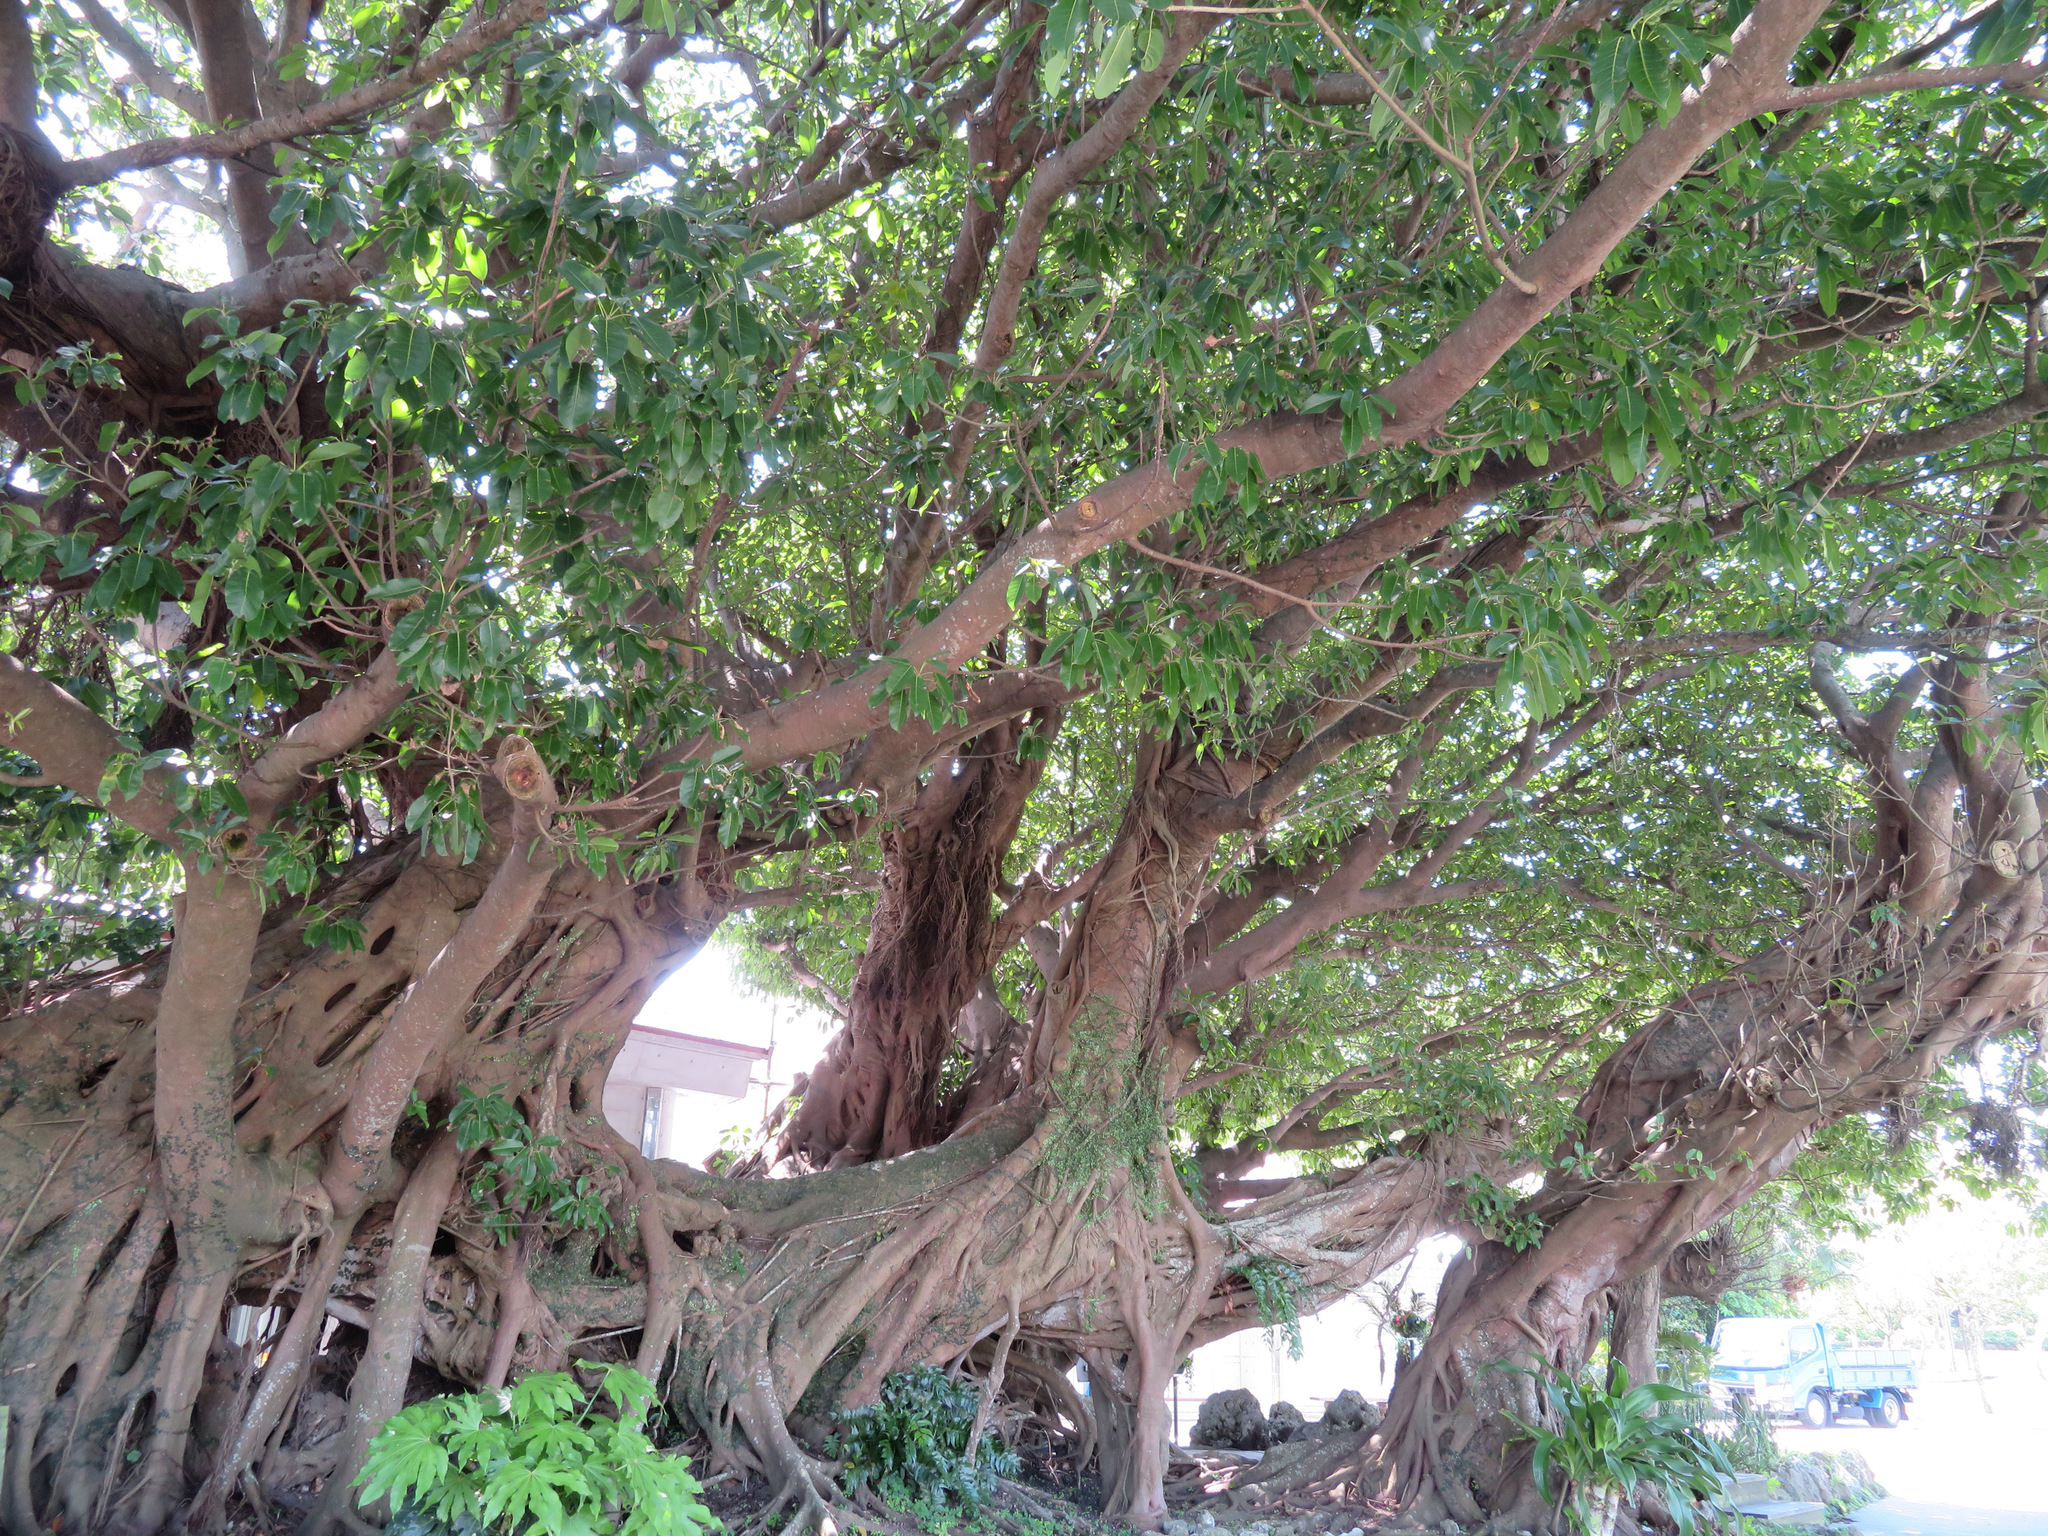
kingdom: Plantae
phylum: Tracheophyta
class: Magnoliopsida
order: Rosales
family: Moraceae
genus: Ficus
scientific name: Ficus subpisocarpa
